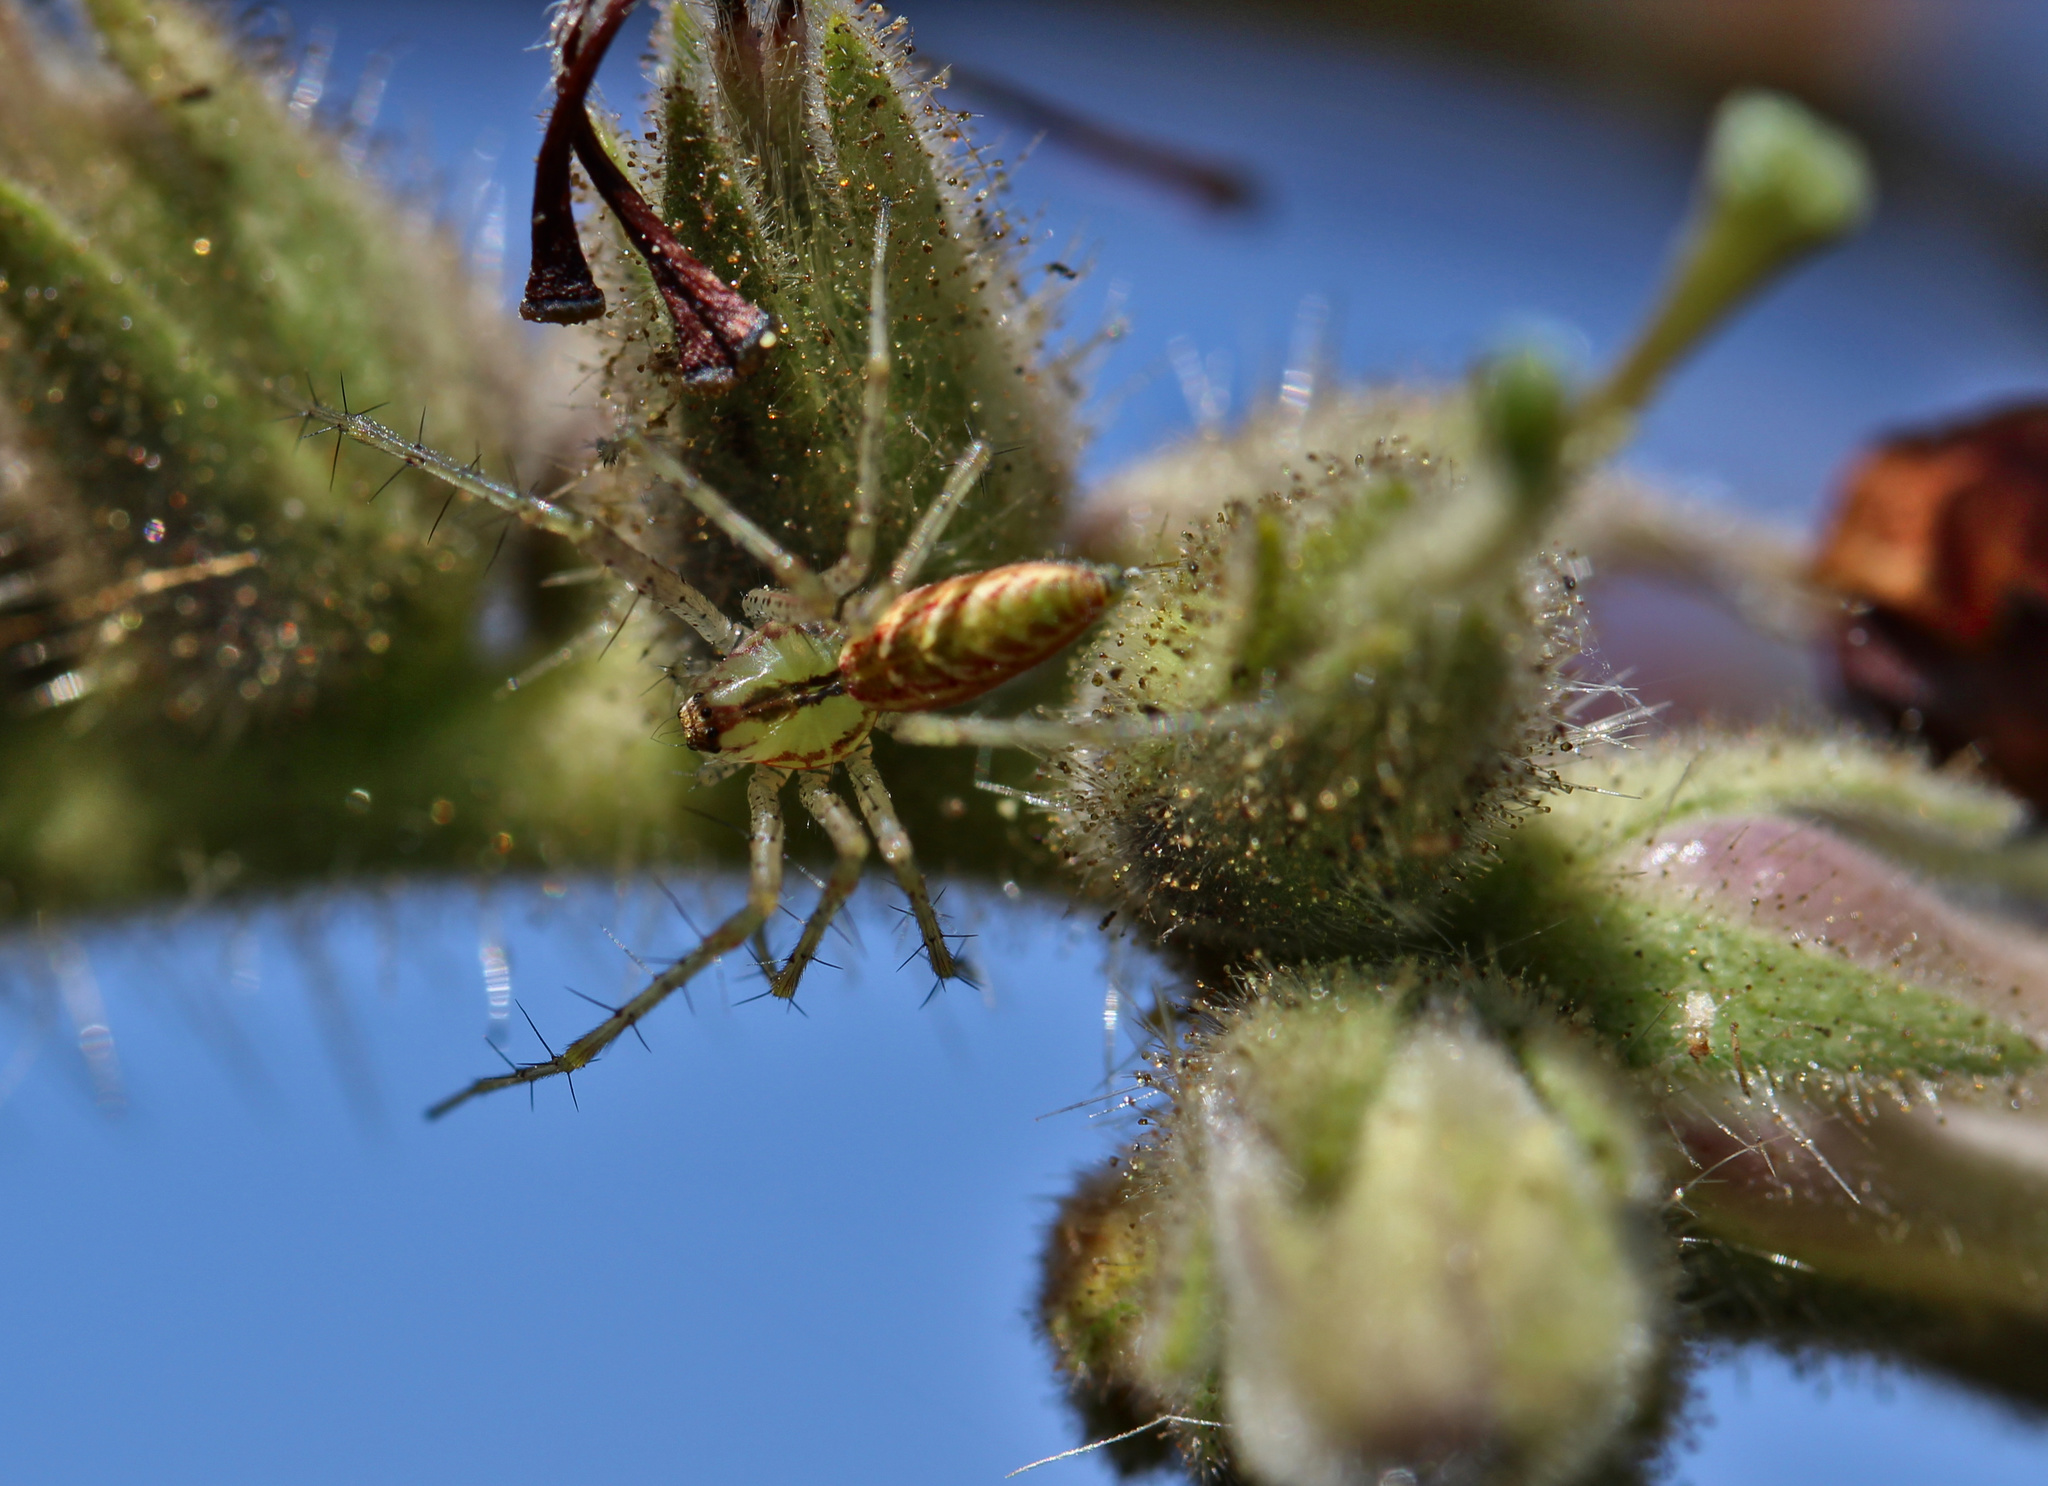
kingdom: Animalia
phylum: Arthropoda
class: Arachnida
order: Araneae
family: Oxyopidae
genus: Peucetia
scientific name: Peucetia
